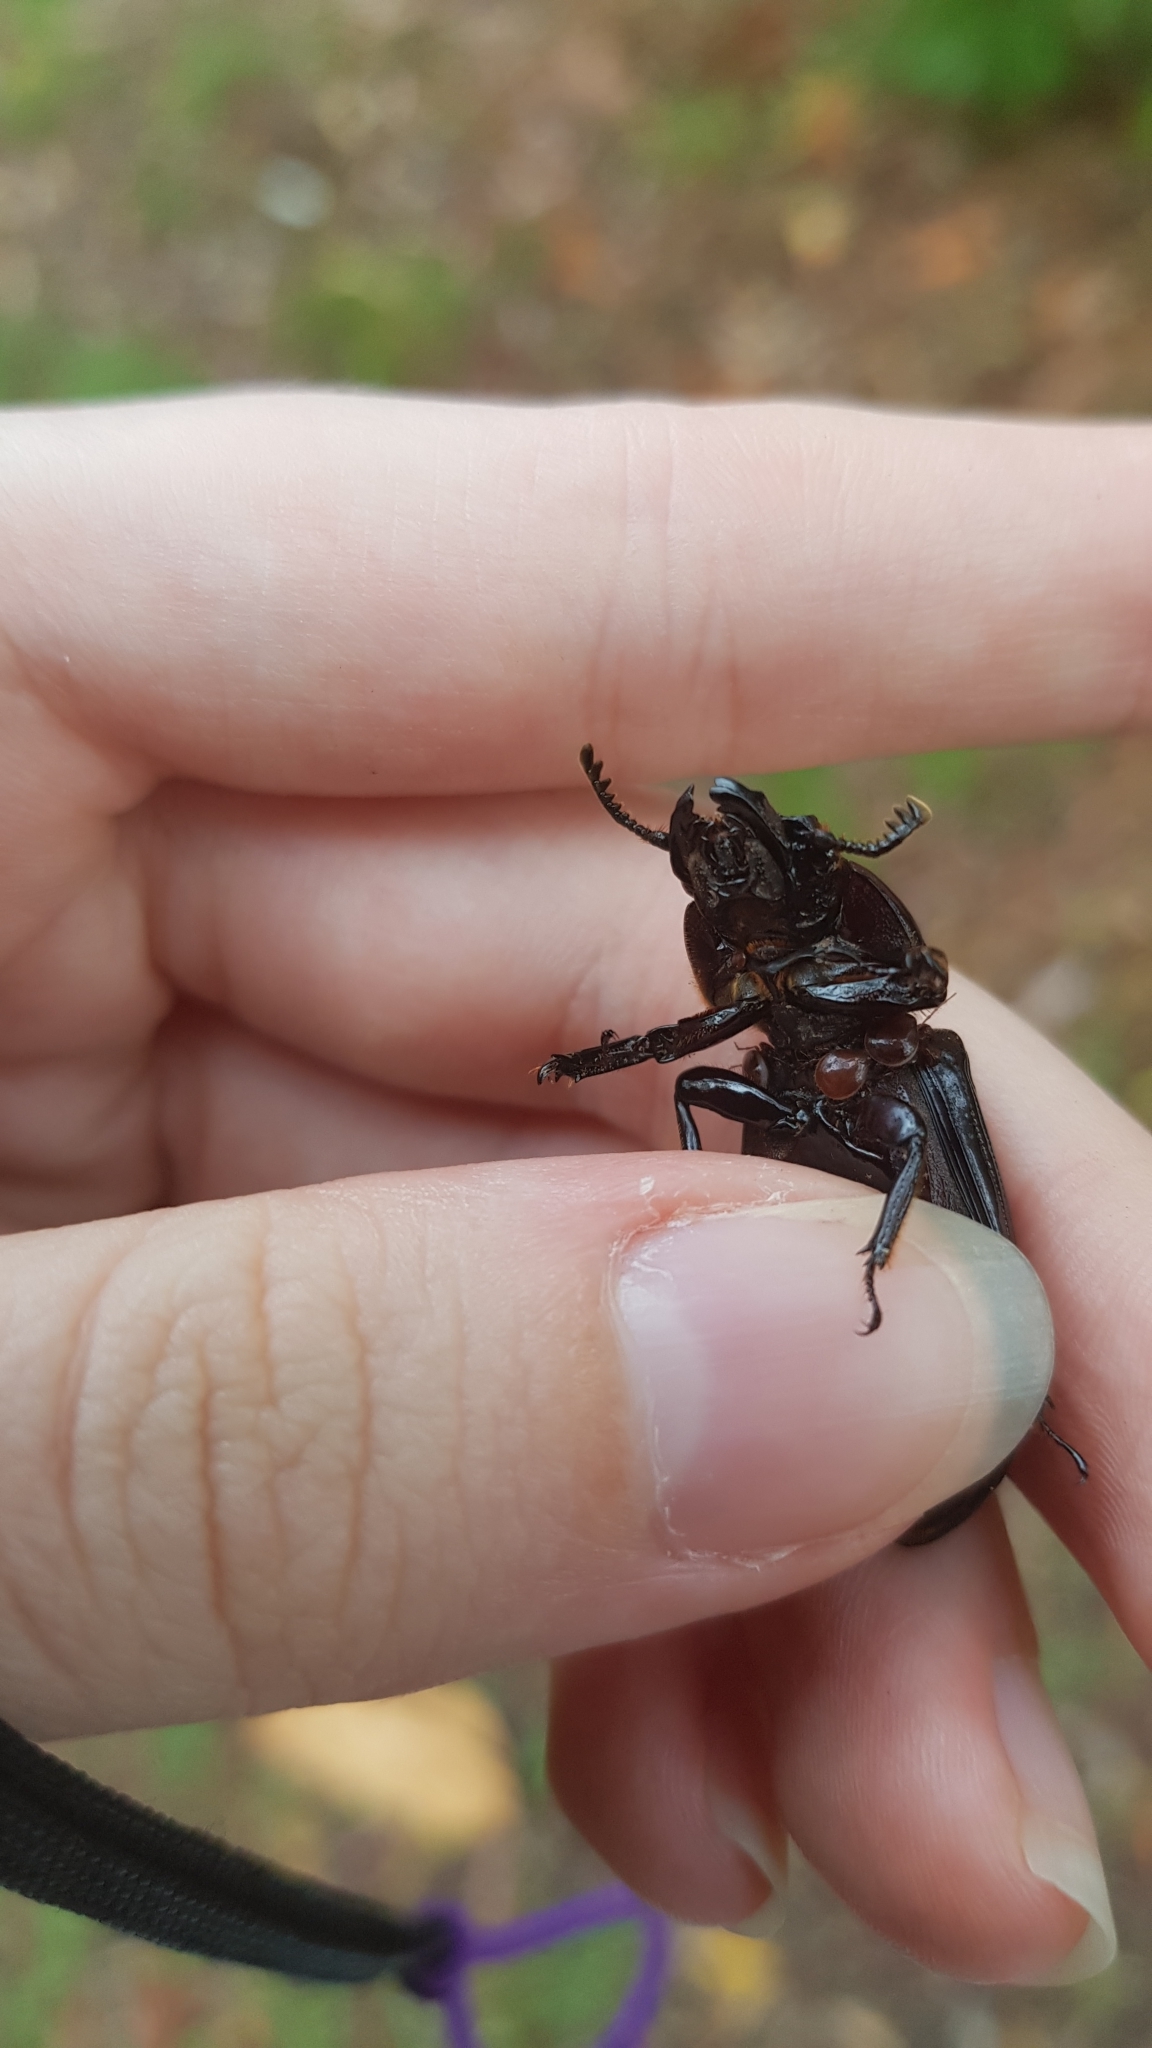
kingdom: Animalia
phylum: Arthropoda
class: Insecta
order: Coleoptera
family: Passalidae
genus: Pharochilus
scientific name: Pharochilus
